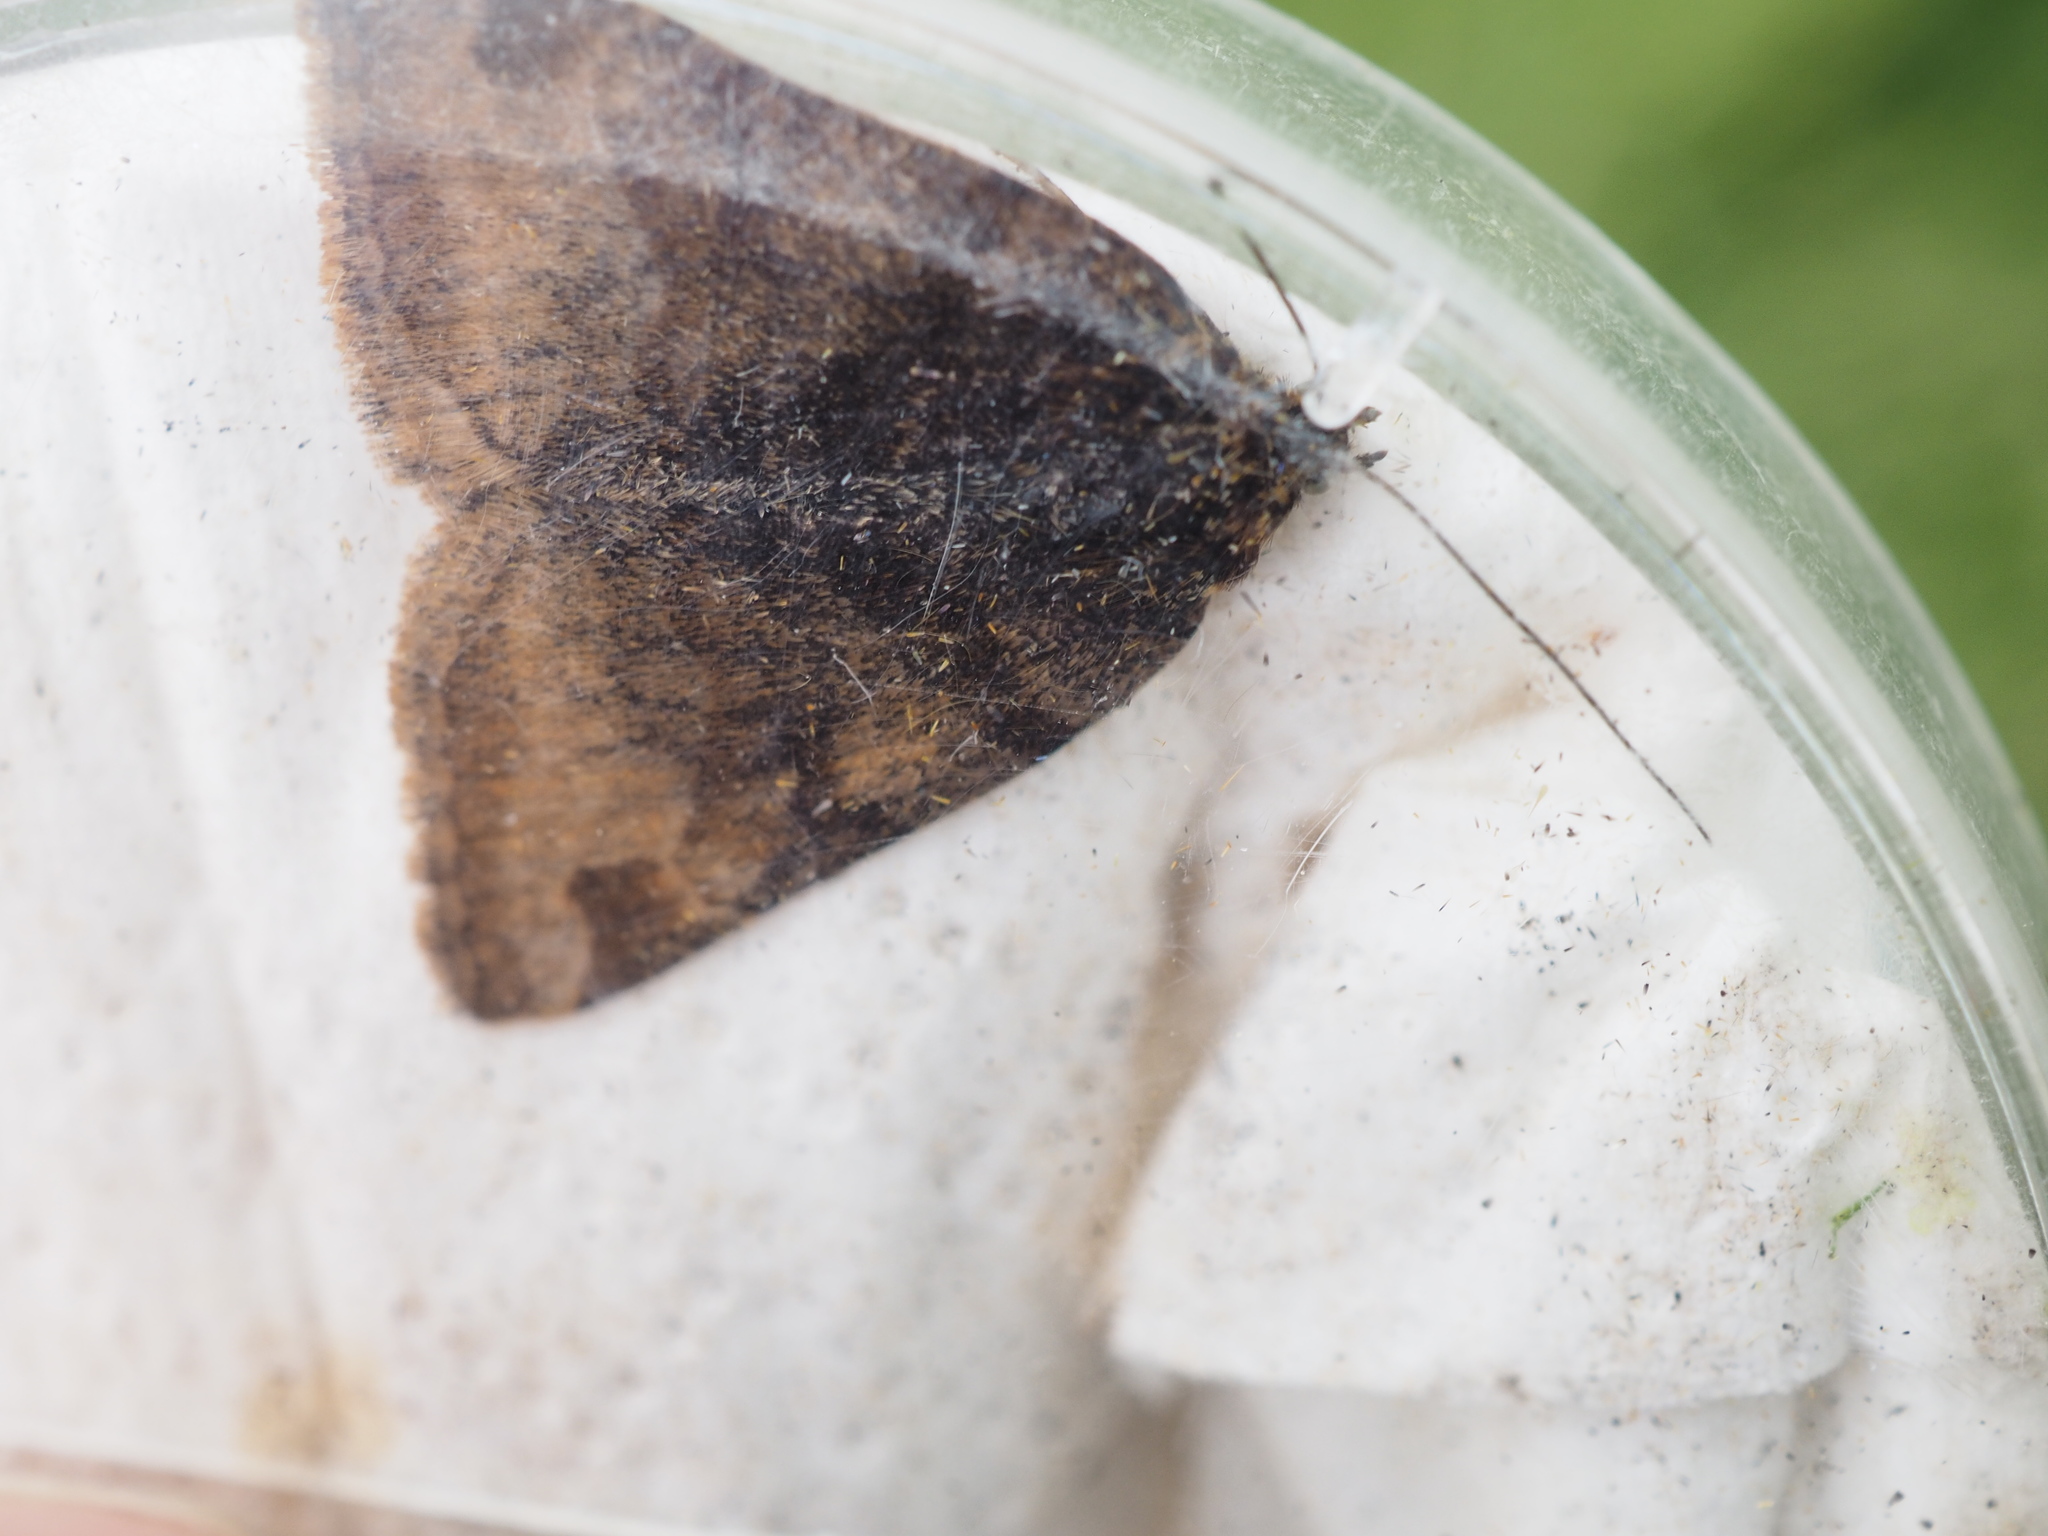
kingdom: Animalia
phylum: Arthropoda
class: Insecta
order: Lepidoptera
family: Erebidae
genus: Euclidia
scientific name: Euclidia glyphica
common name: Burnet companion
